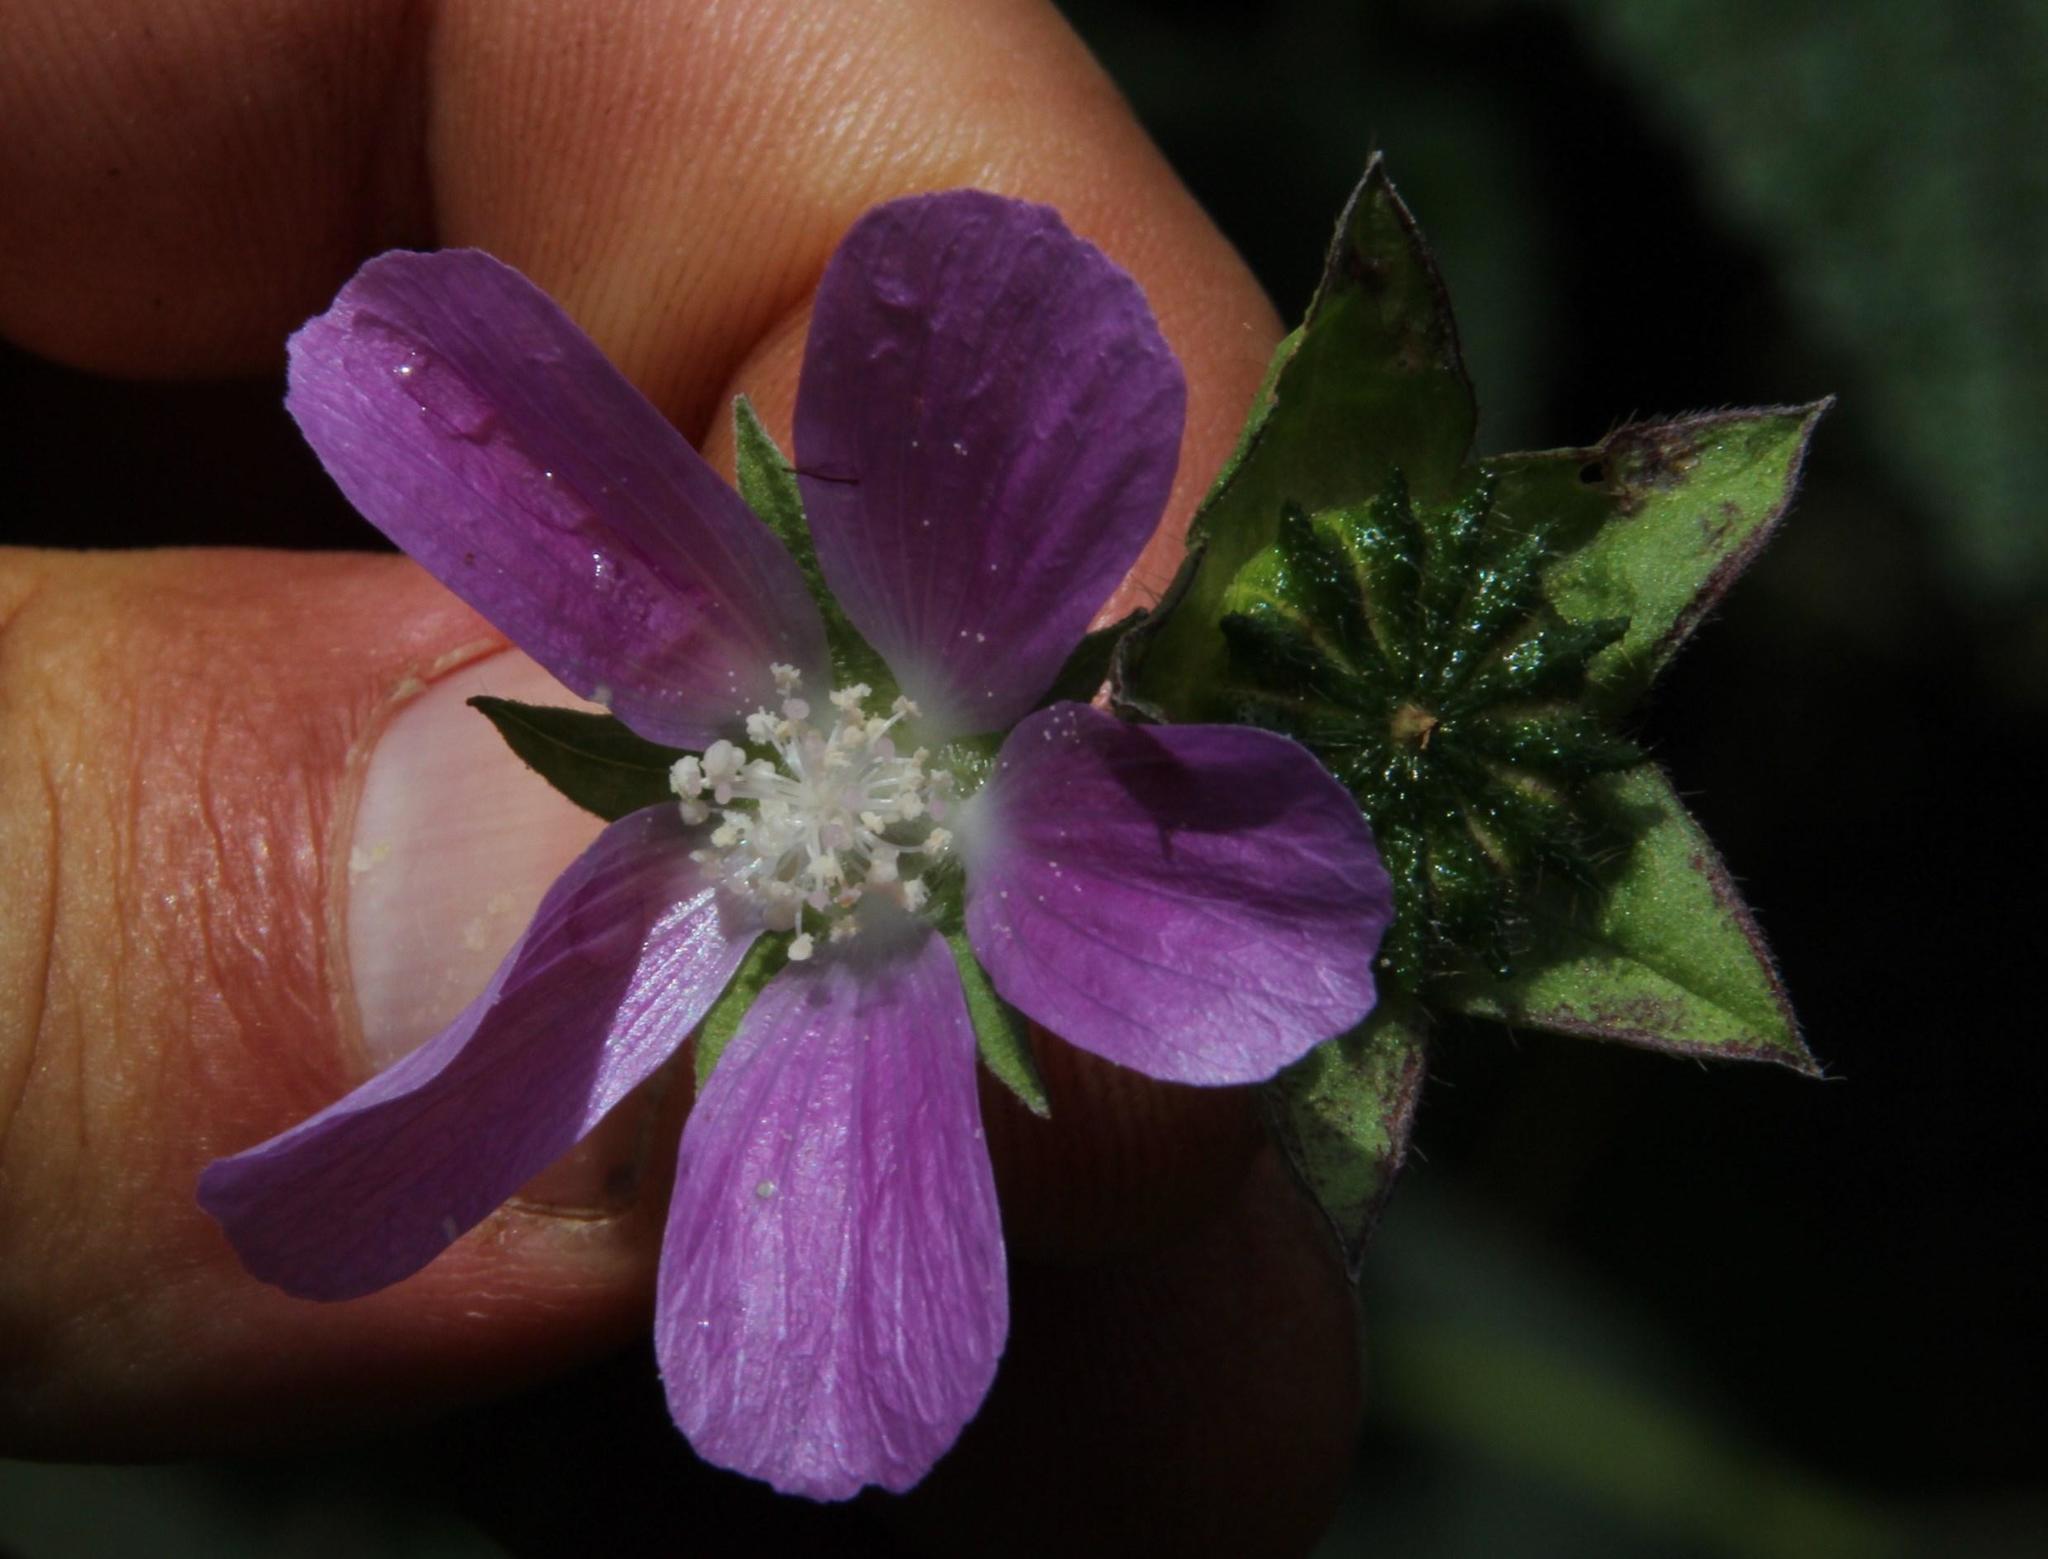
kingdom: Plantae
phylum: Tracheophyta
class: Magnoliopsida
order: Malvales
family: Malvaceae
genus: Anoda
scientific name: Anoda cristata
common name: Spurred anoda
